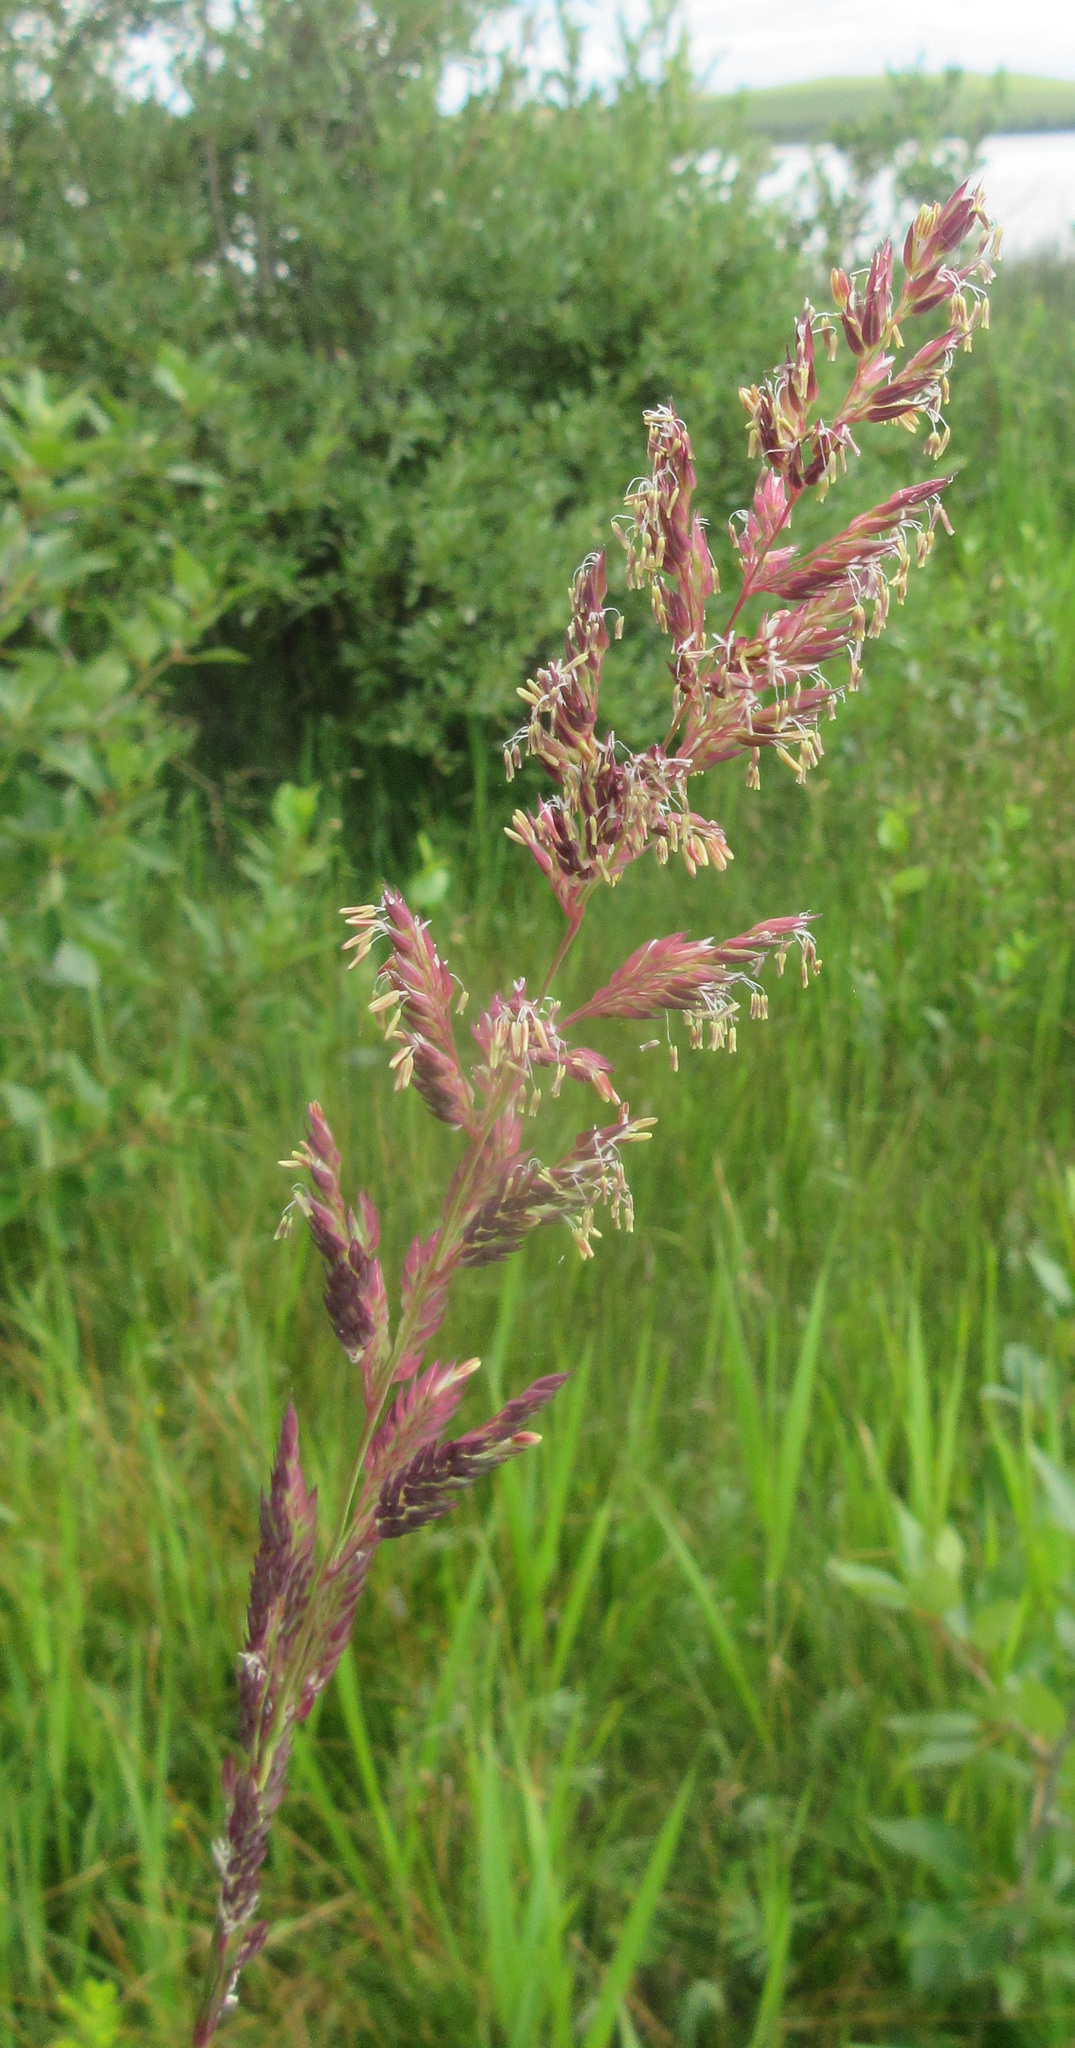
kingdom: Plantae
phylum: Tracheophyta
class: Liliopsida
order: Poales
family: Poaceae
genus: Phalaris
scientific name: Phalaris arundinacea
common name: Reed canary-grass
